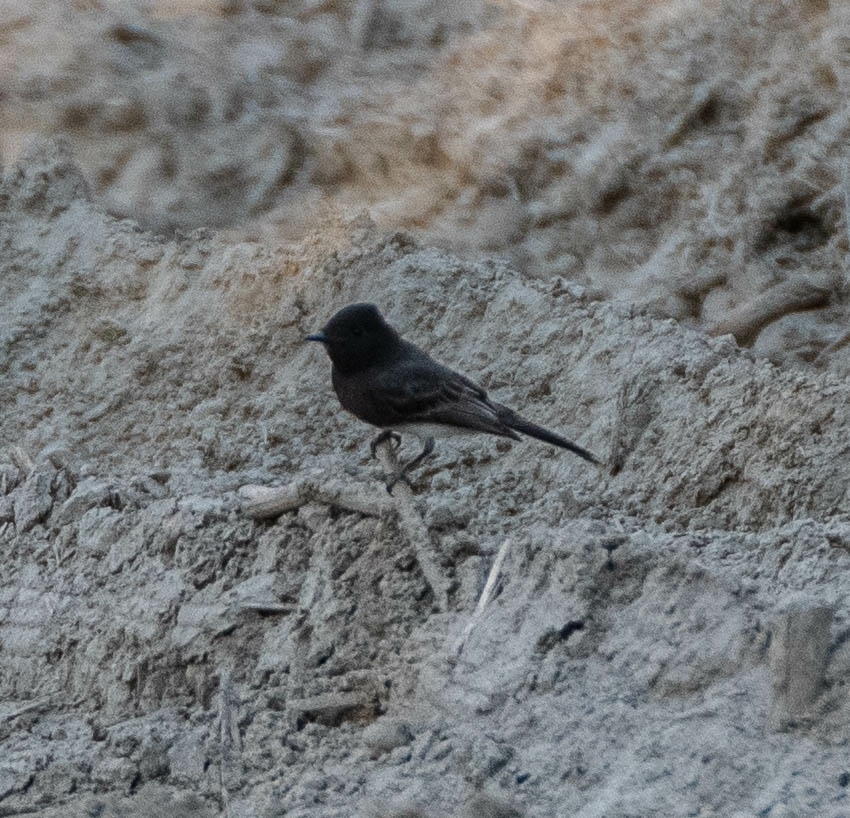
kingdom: Animalia
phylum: Chordata
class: Aves
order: Passeriformes
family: Tyrannidae
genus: Sayornis
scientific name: Sayornis nigricans
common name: Black phoebe
